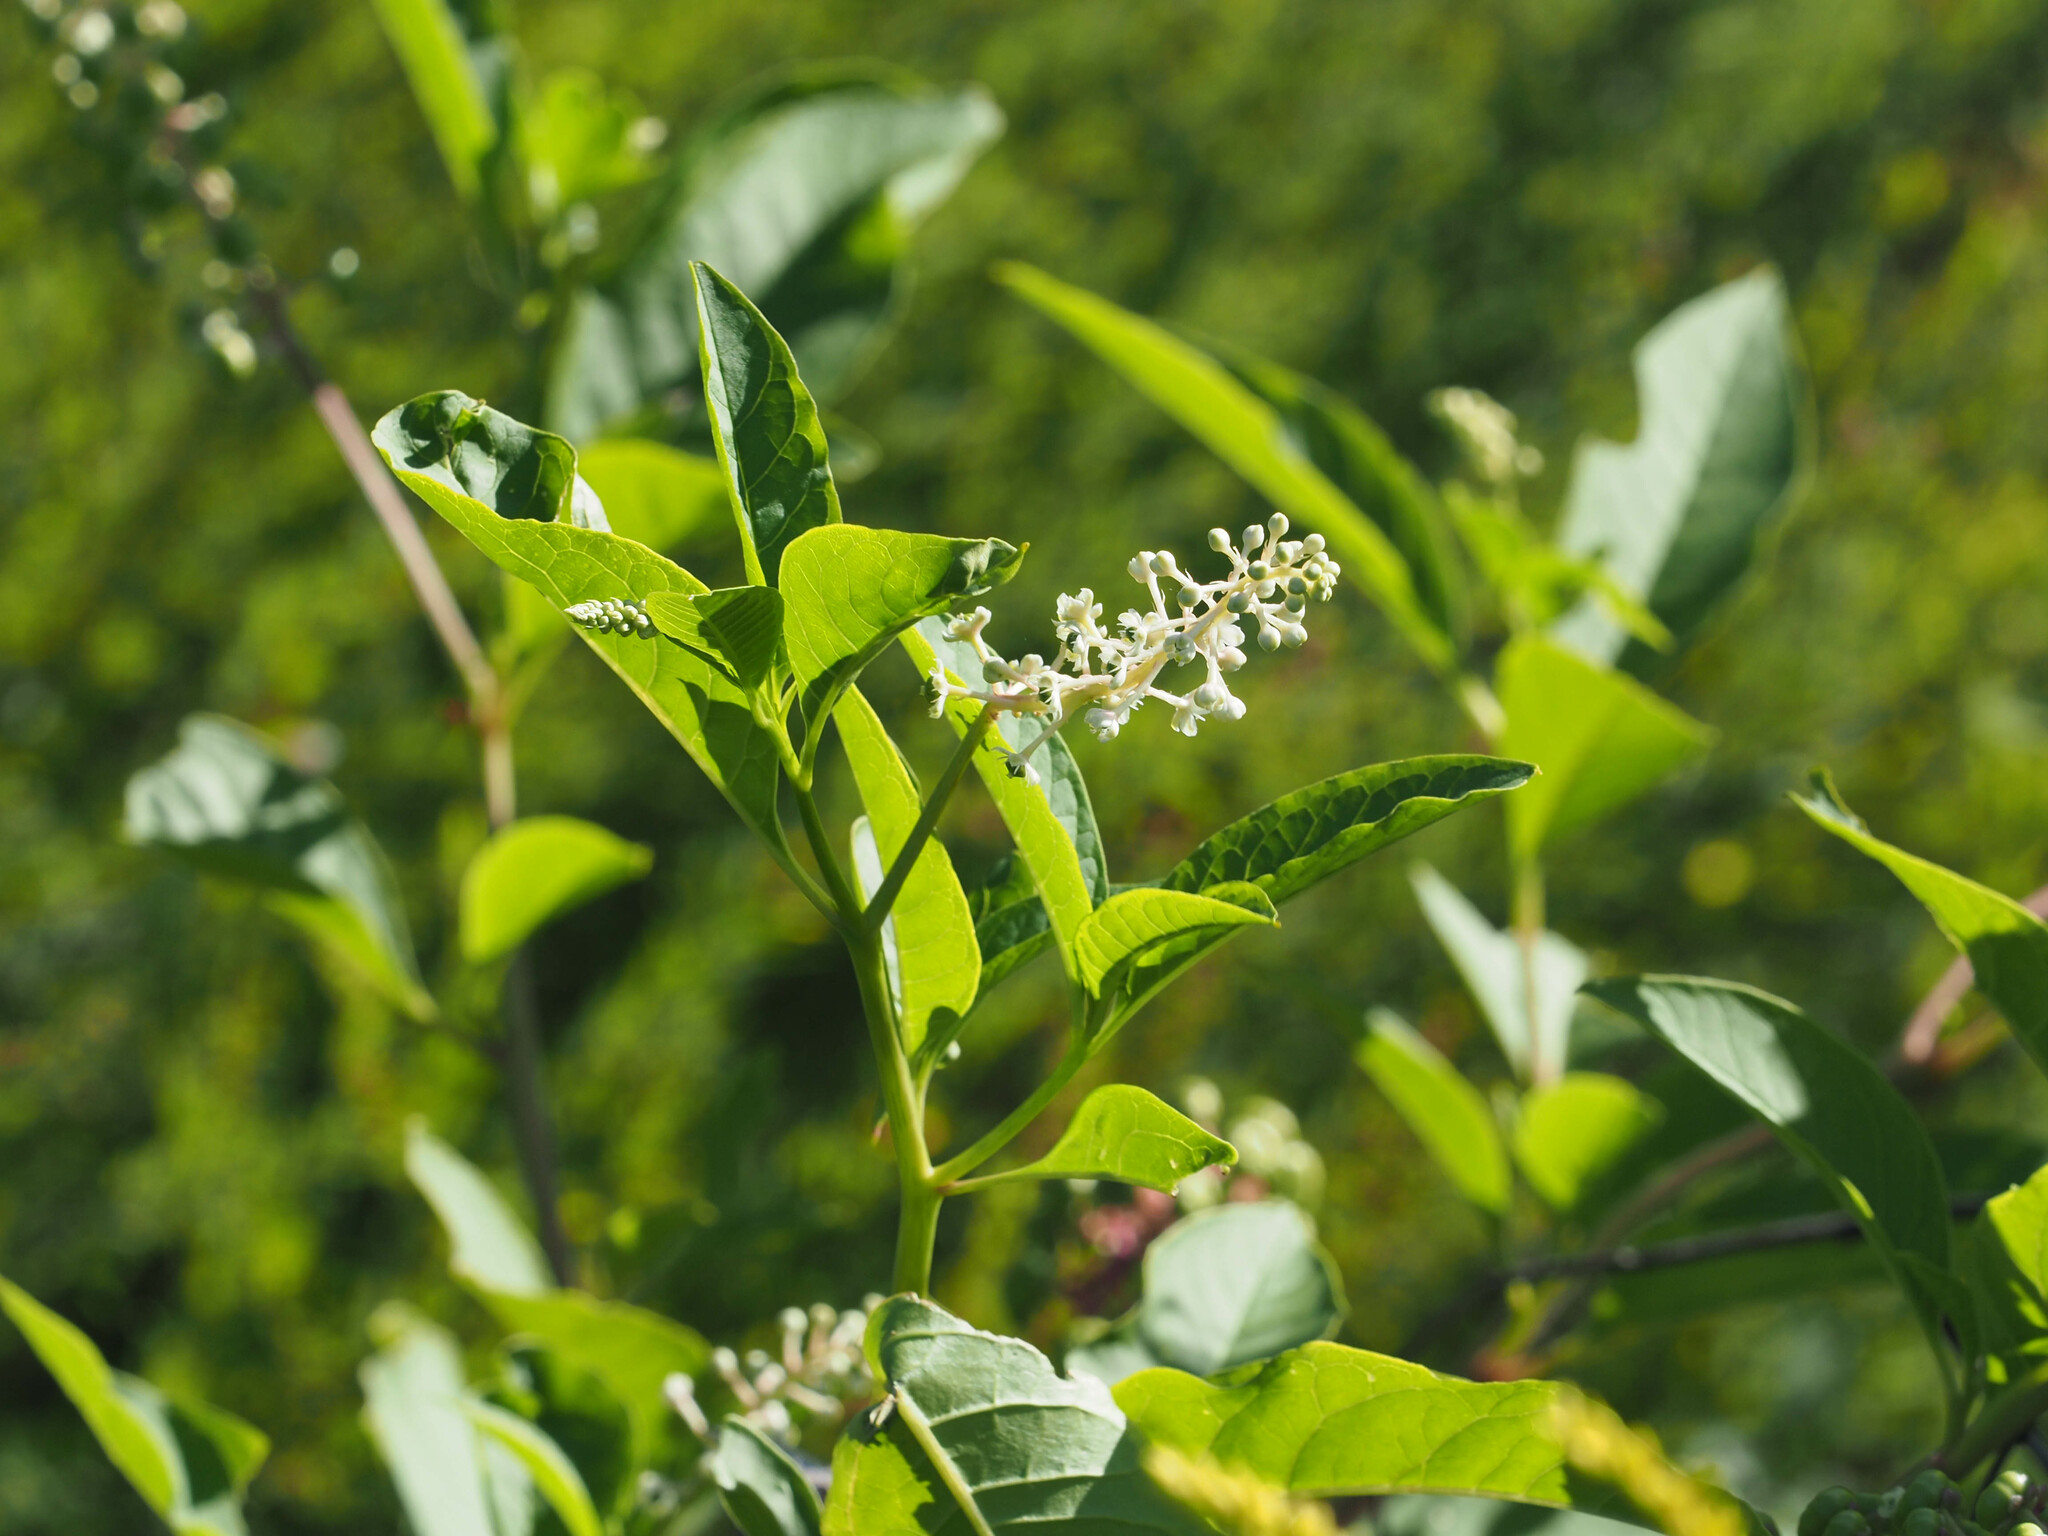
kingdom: Plantae
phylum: Tracheophyta
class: Magnoliopsida
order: Caryophyllales
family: Phytolaccaceae
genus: Phytolacca
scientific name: Phytolacca americana
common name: American pokeweed
